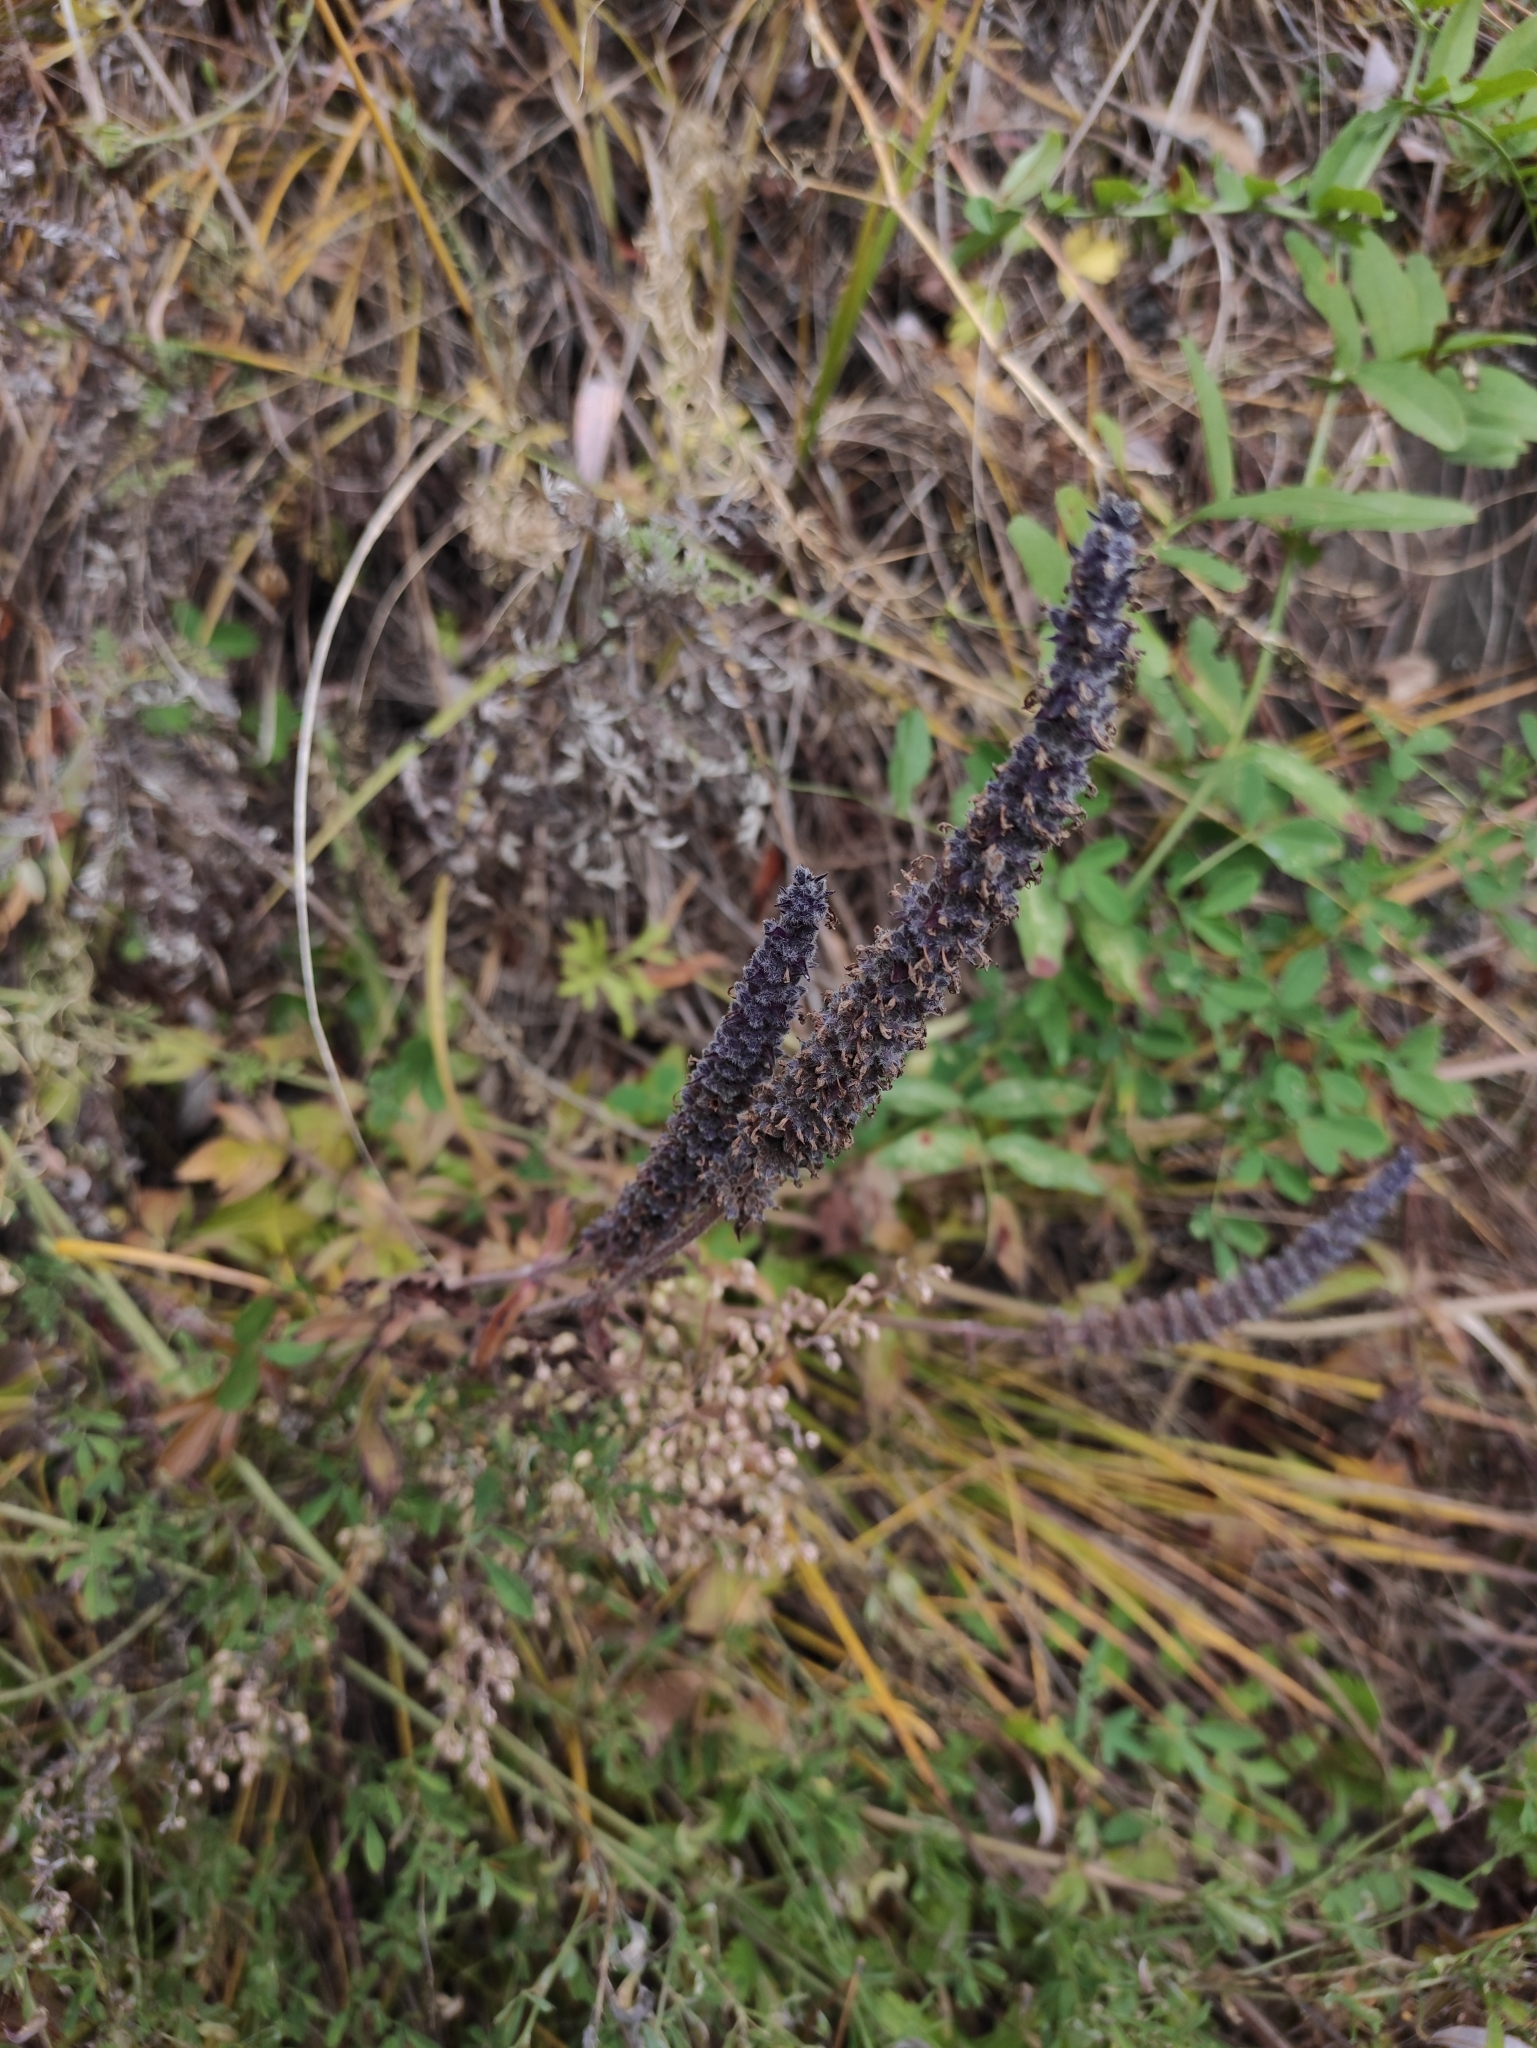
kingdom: Plantae
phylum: Tracheophyta
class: Magnoliopsida
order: Lamiales
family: Lamiaceae
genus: Nepeta
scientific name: Nepeta multifida
